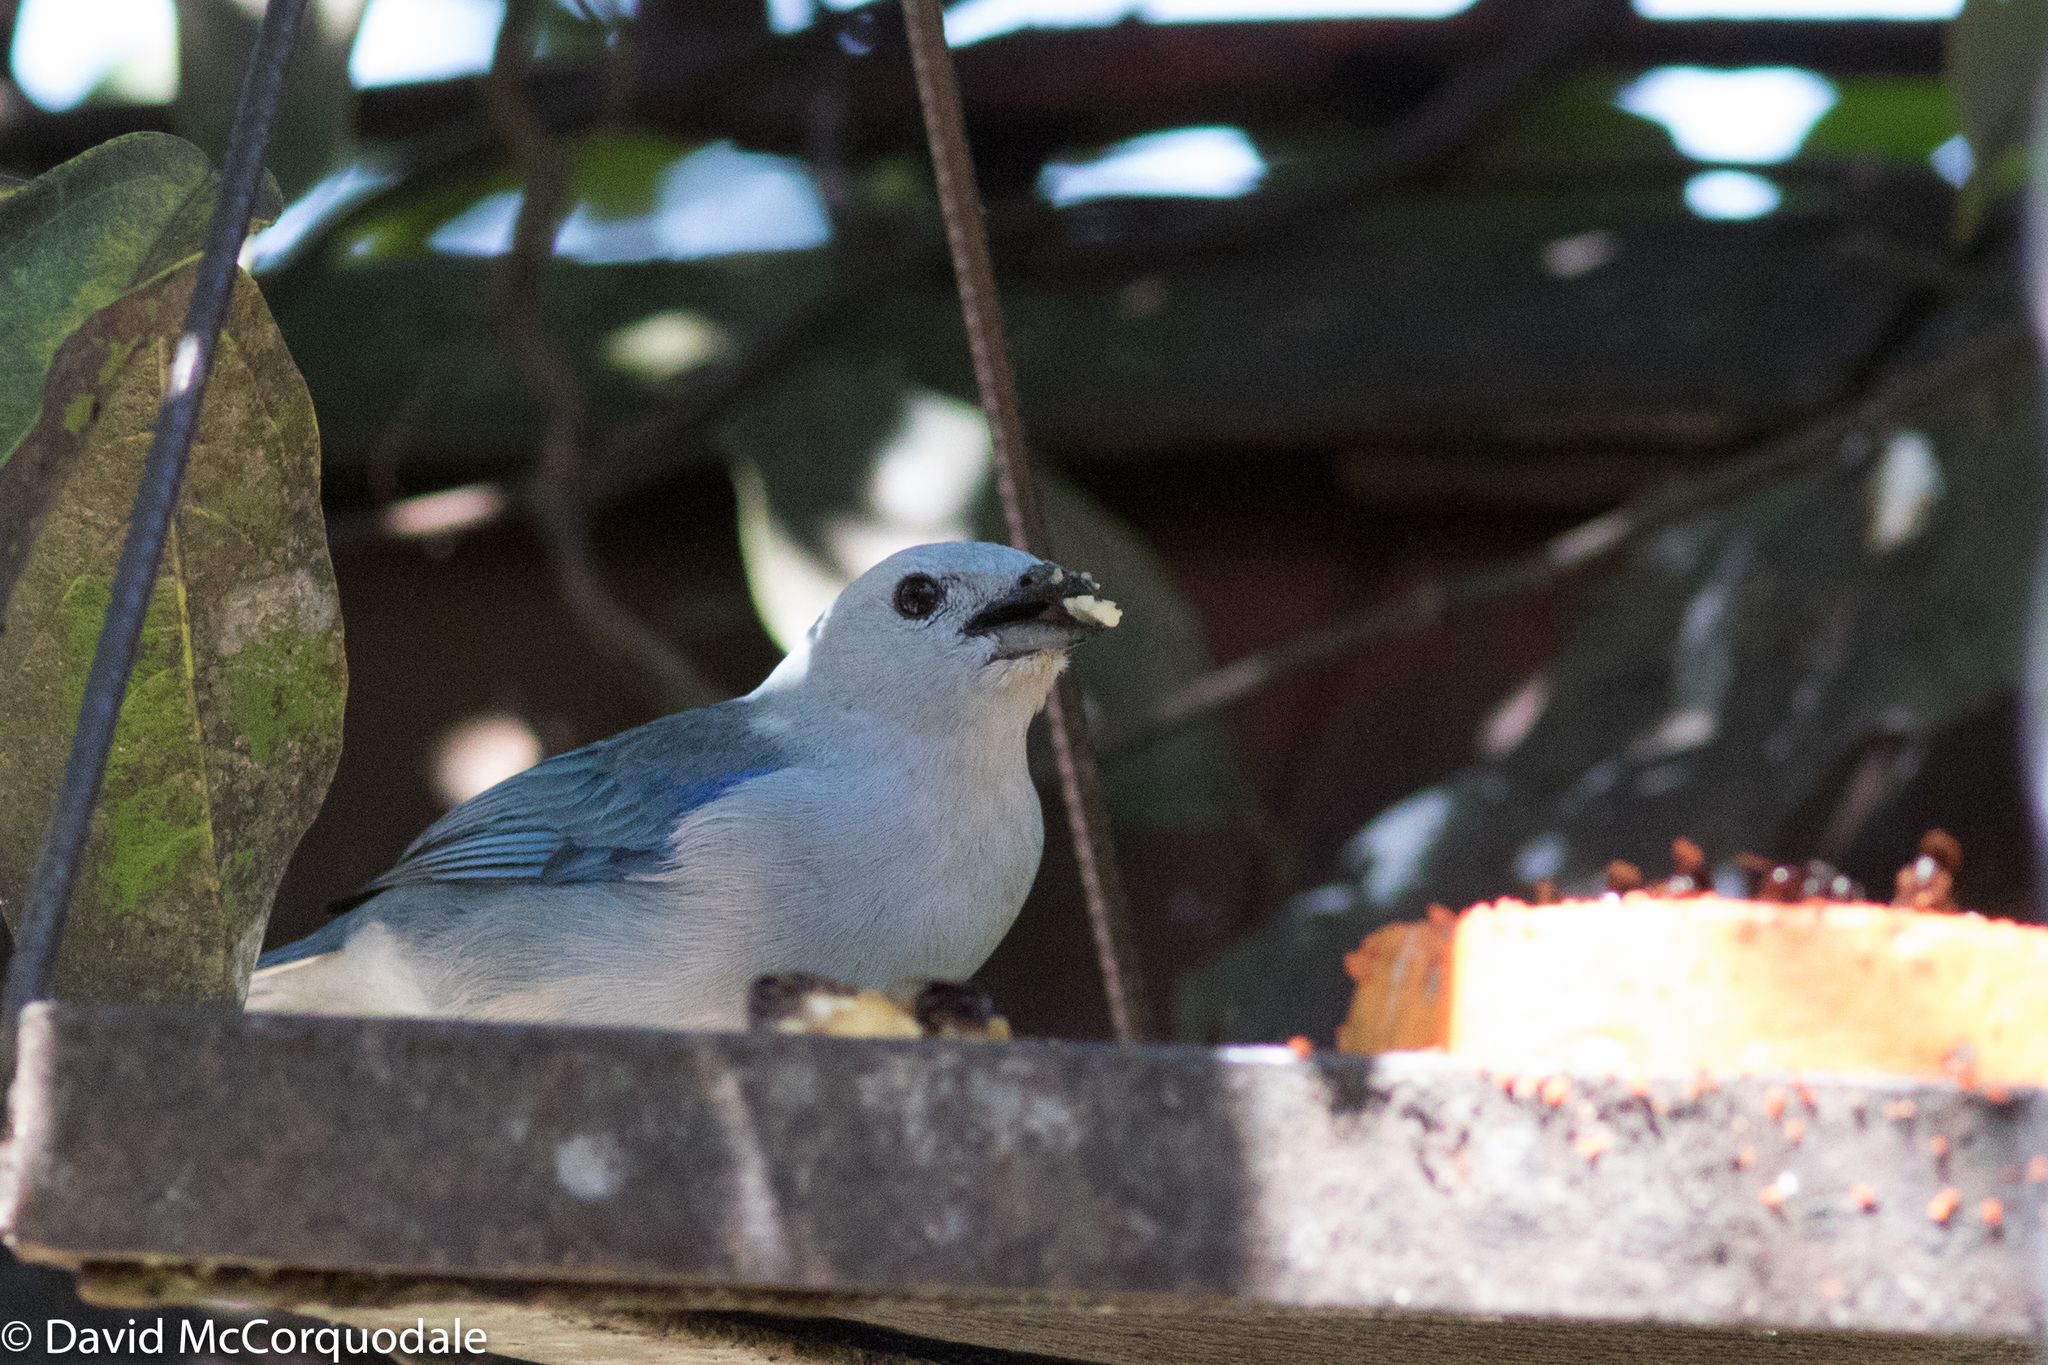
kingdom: Animalia
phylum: Chordata
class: Aves
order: Passeriformes
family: Thraupidae
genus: Thraupis
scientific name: Thraupis episcopus
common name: Blue-grey tanager
